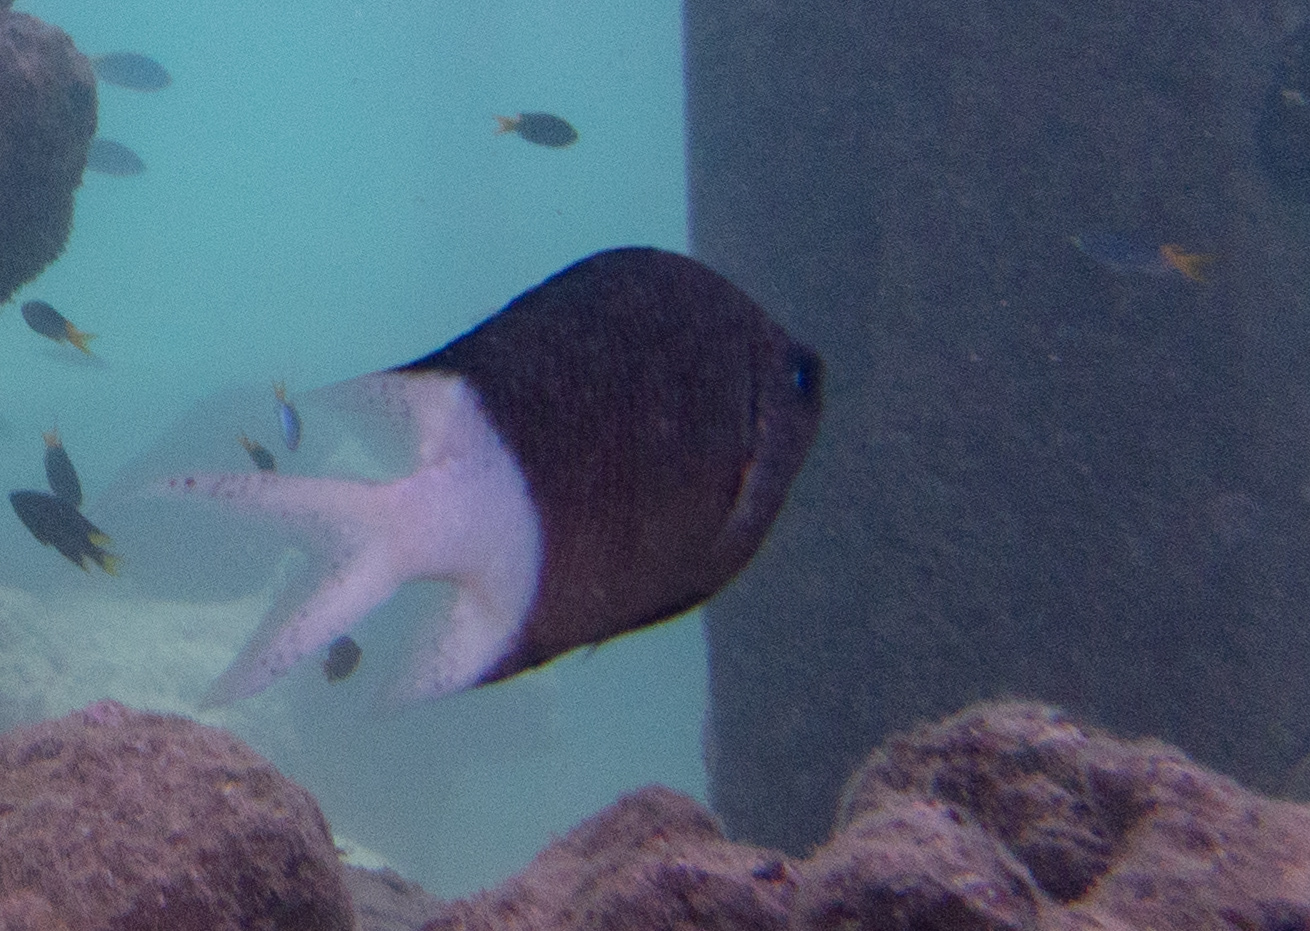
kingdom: Animalia
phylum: Chordata
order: Perciformes
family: Pomacentridae
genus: Acanthochromis
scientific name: Acanthochromis polyacanthus
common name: Spiny chromis
